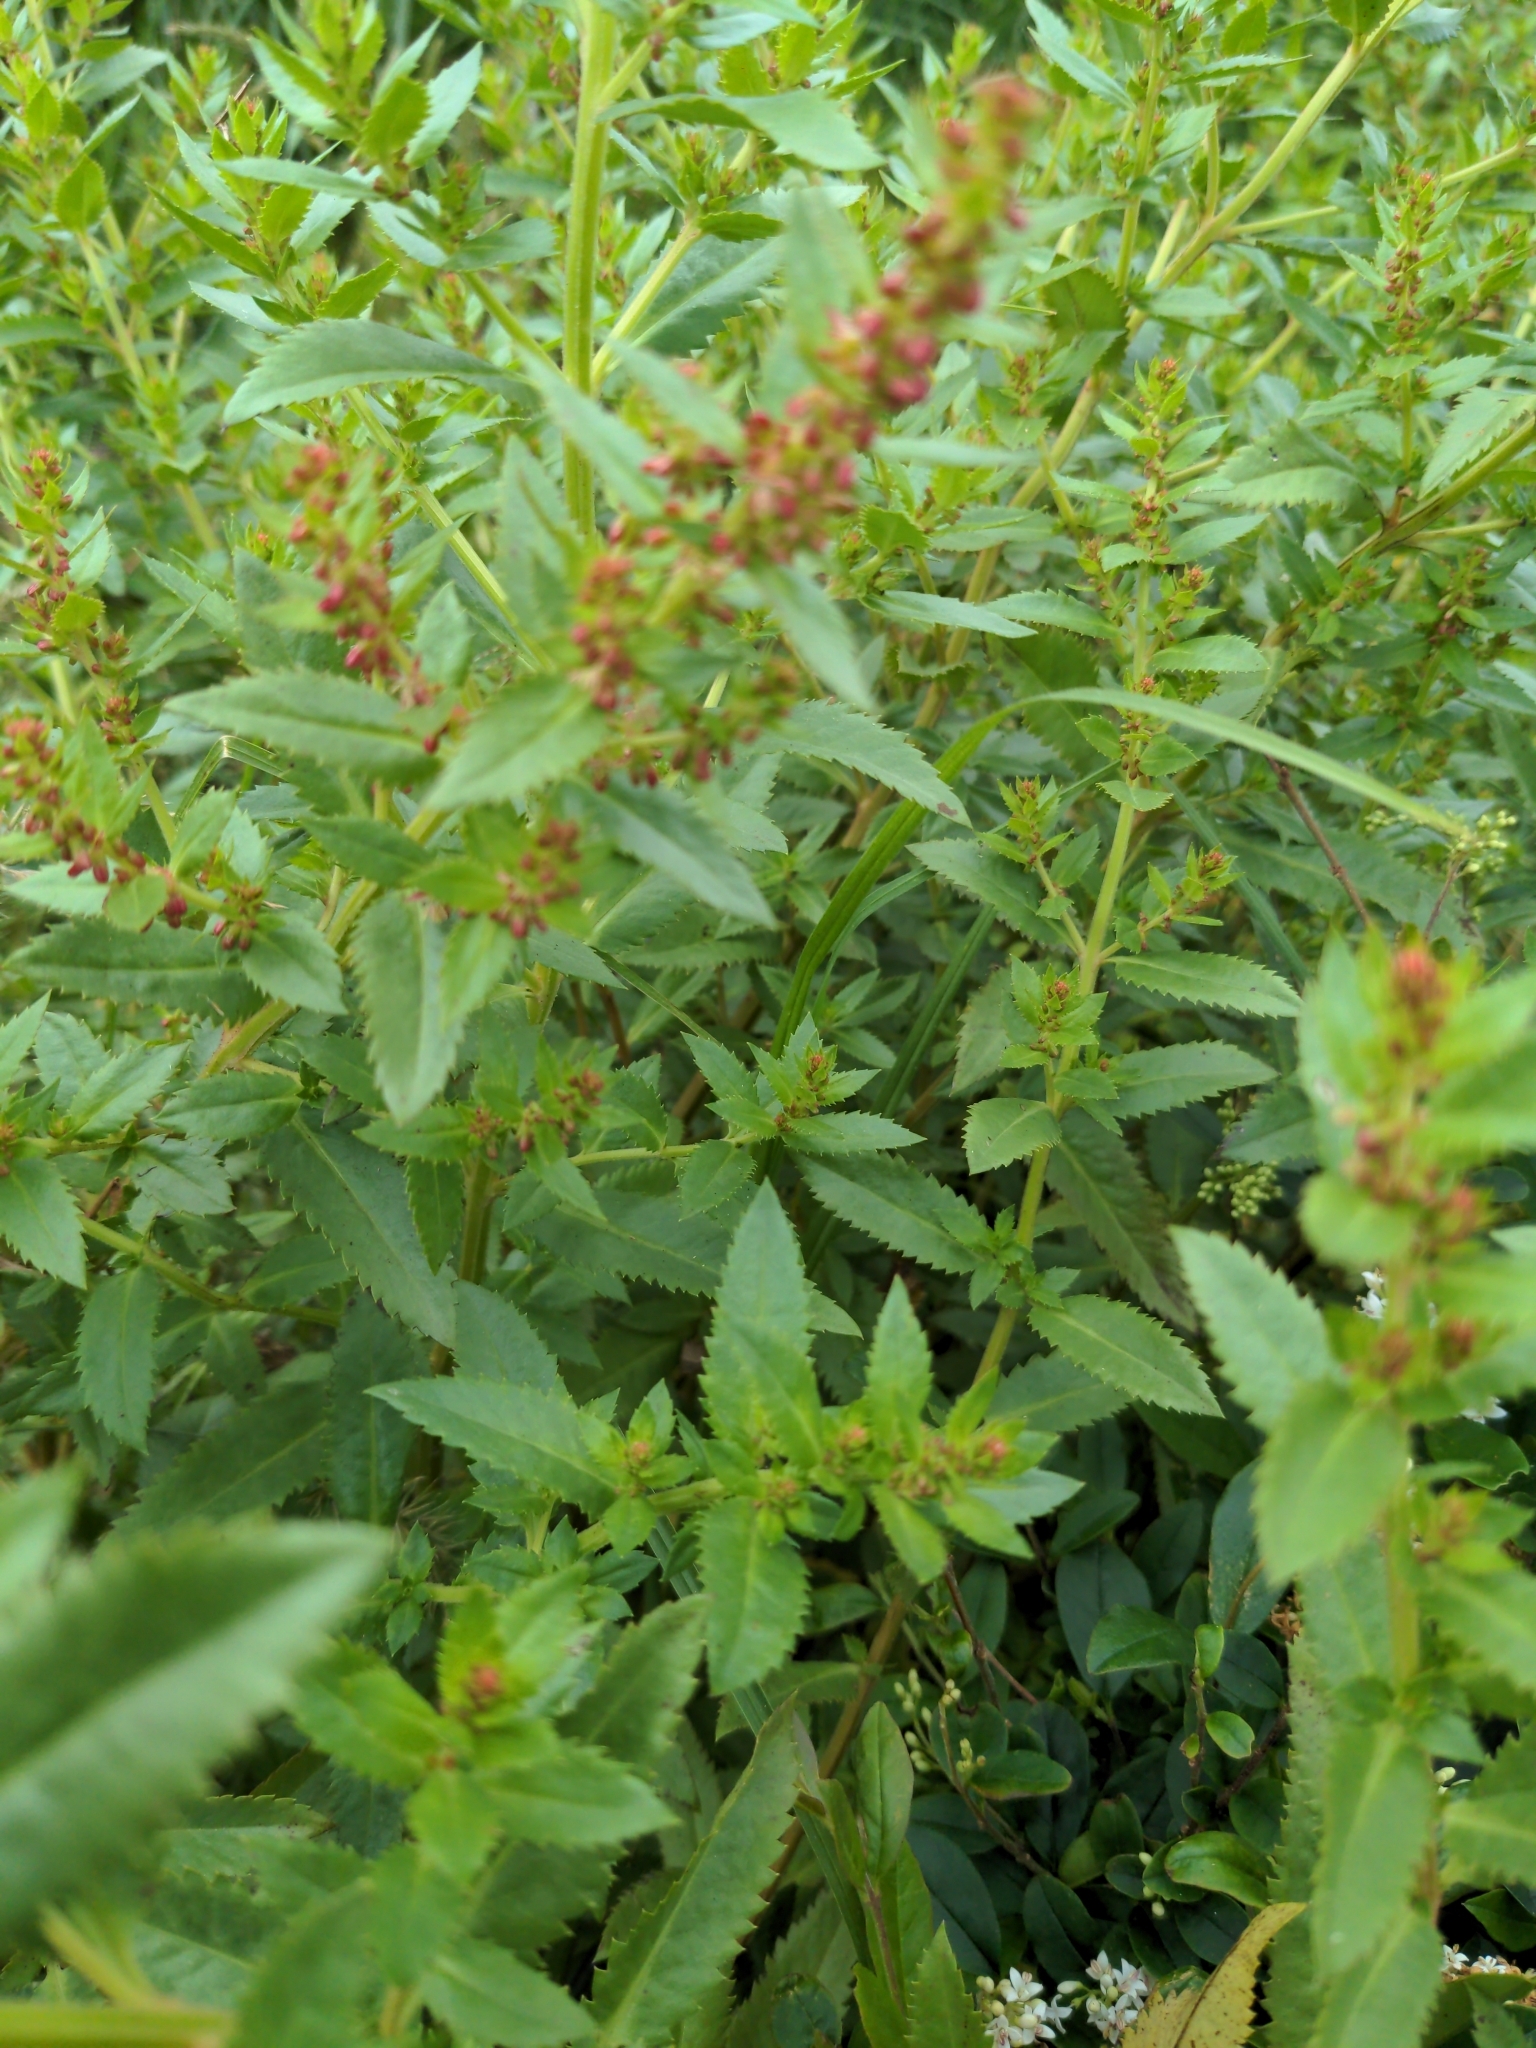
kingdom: Plantae
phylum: Tracheophyta
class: Magnoliopsida
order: Saxifragales
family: Haloragaceae
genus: Haloragis
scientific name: Haloragis erecta
